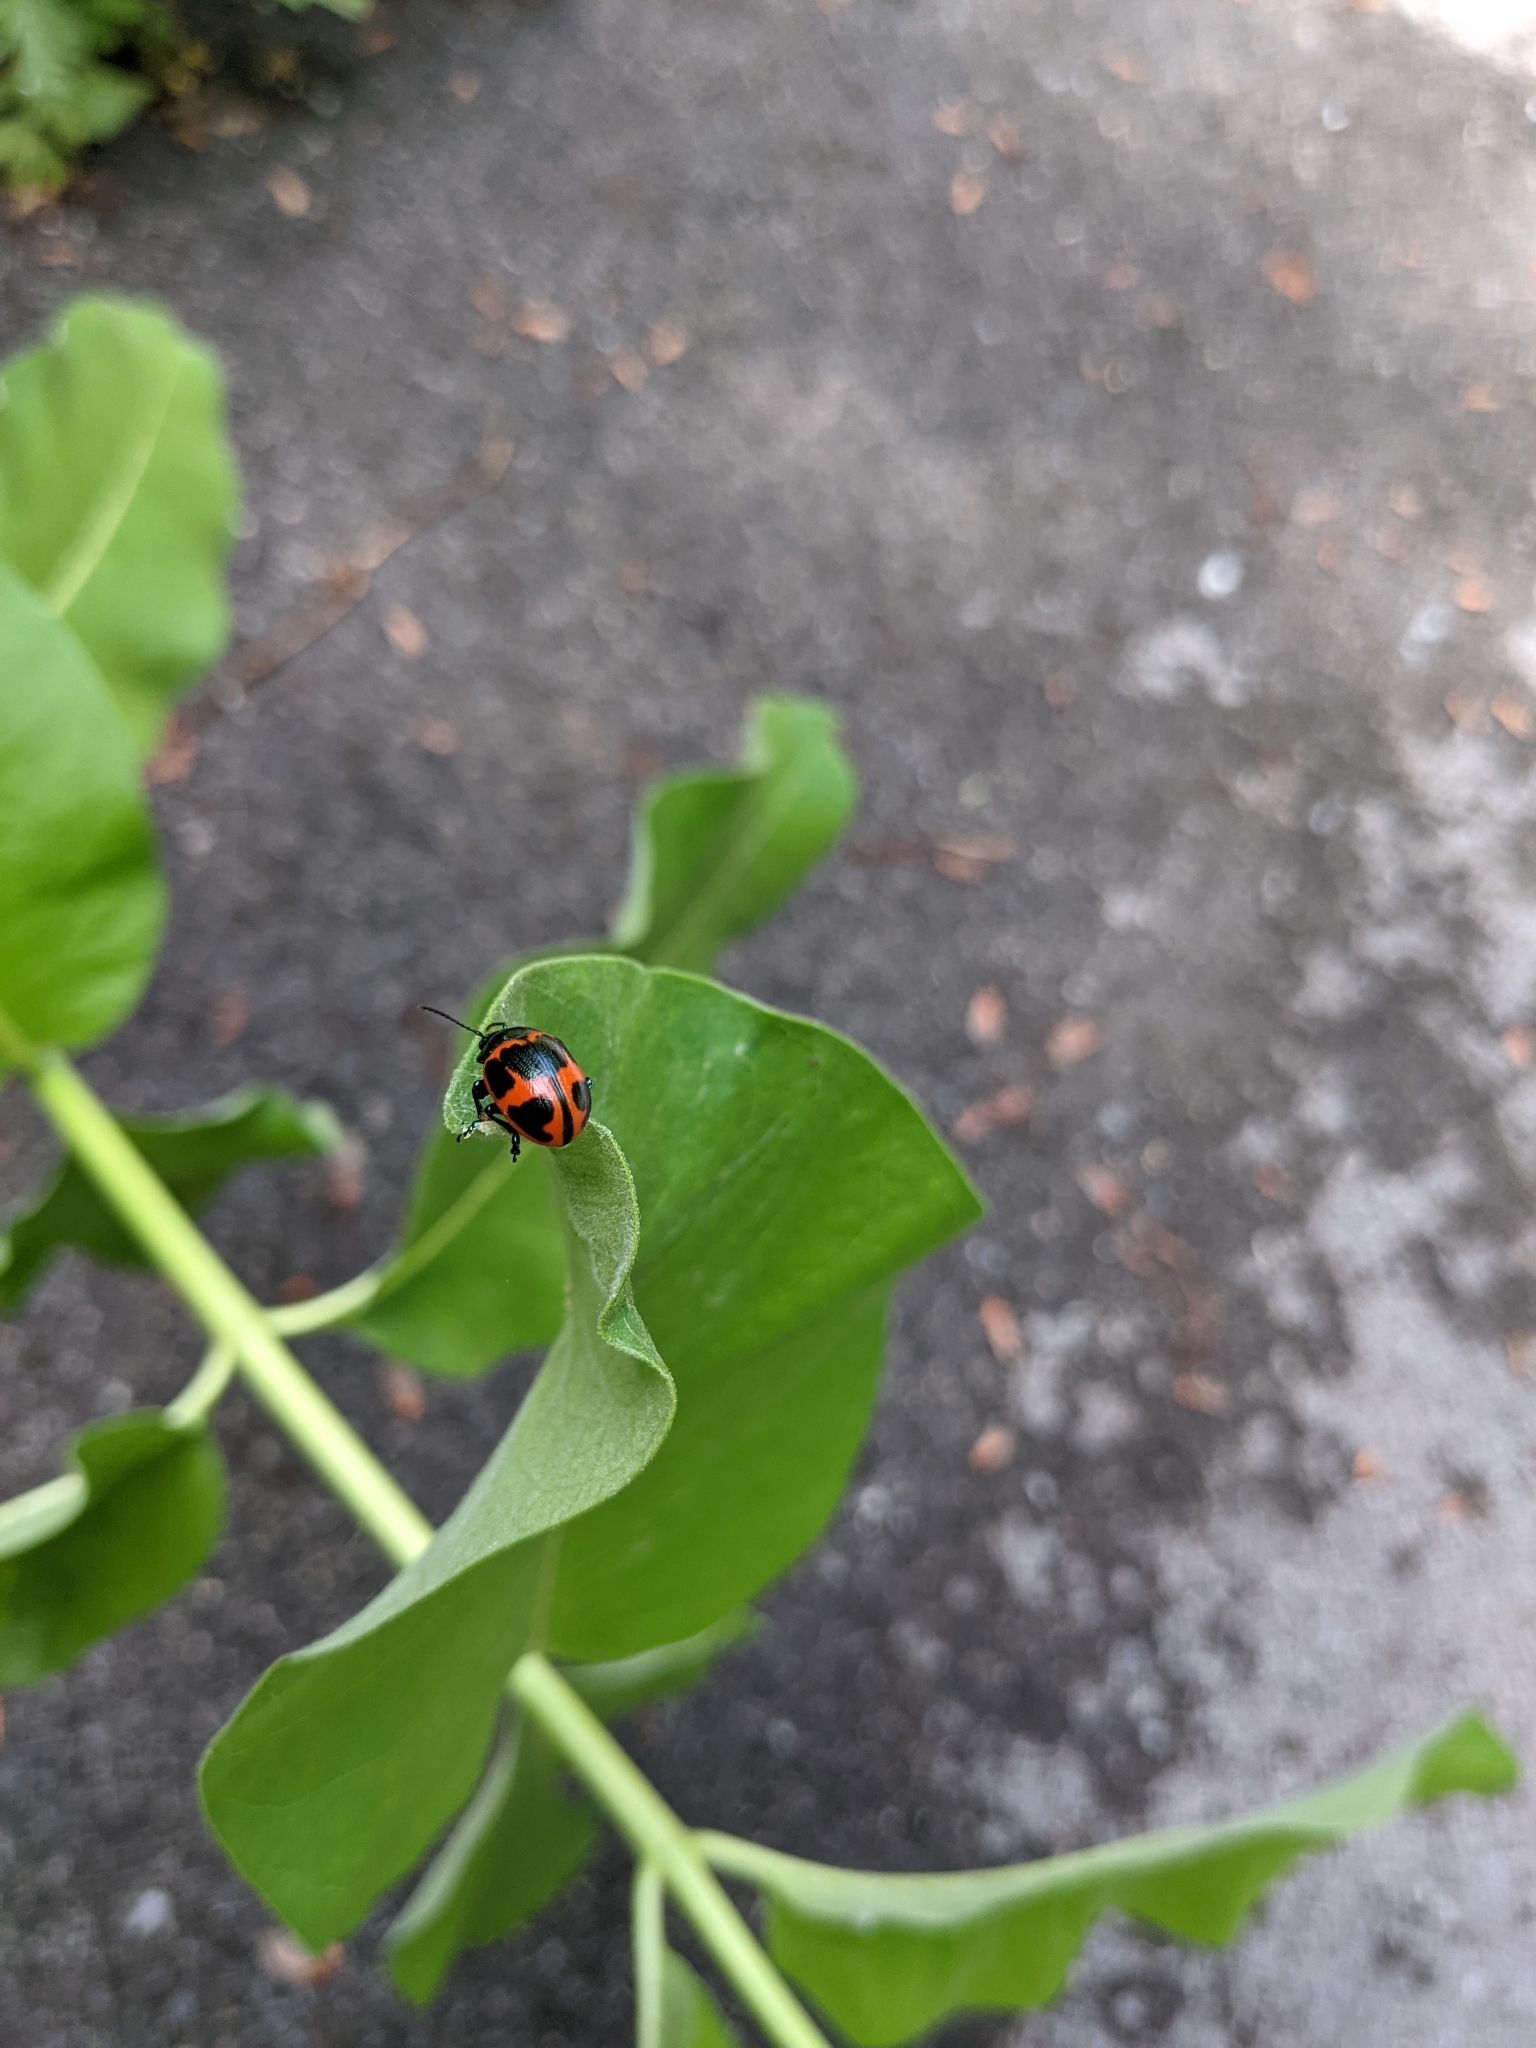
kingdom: Animalia
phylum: Arthropoda
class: Insecta
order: Coleoptera
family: Chrysomelidae
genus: Labidomera
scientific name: Labidomera clivicollis
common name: Swamp milkweed leaf beetle
